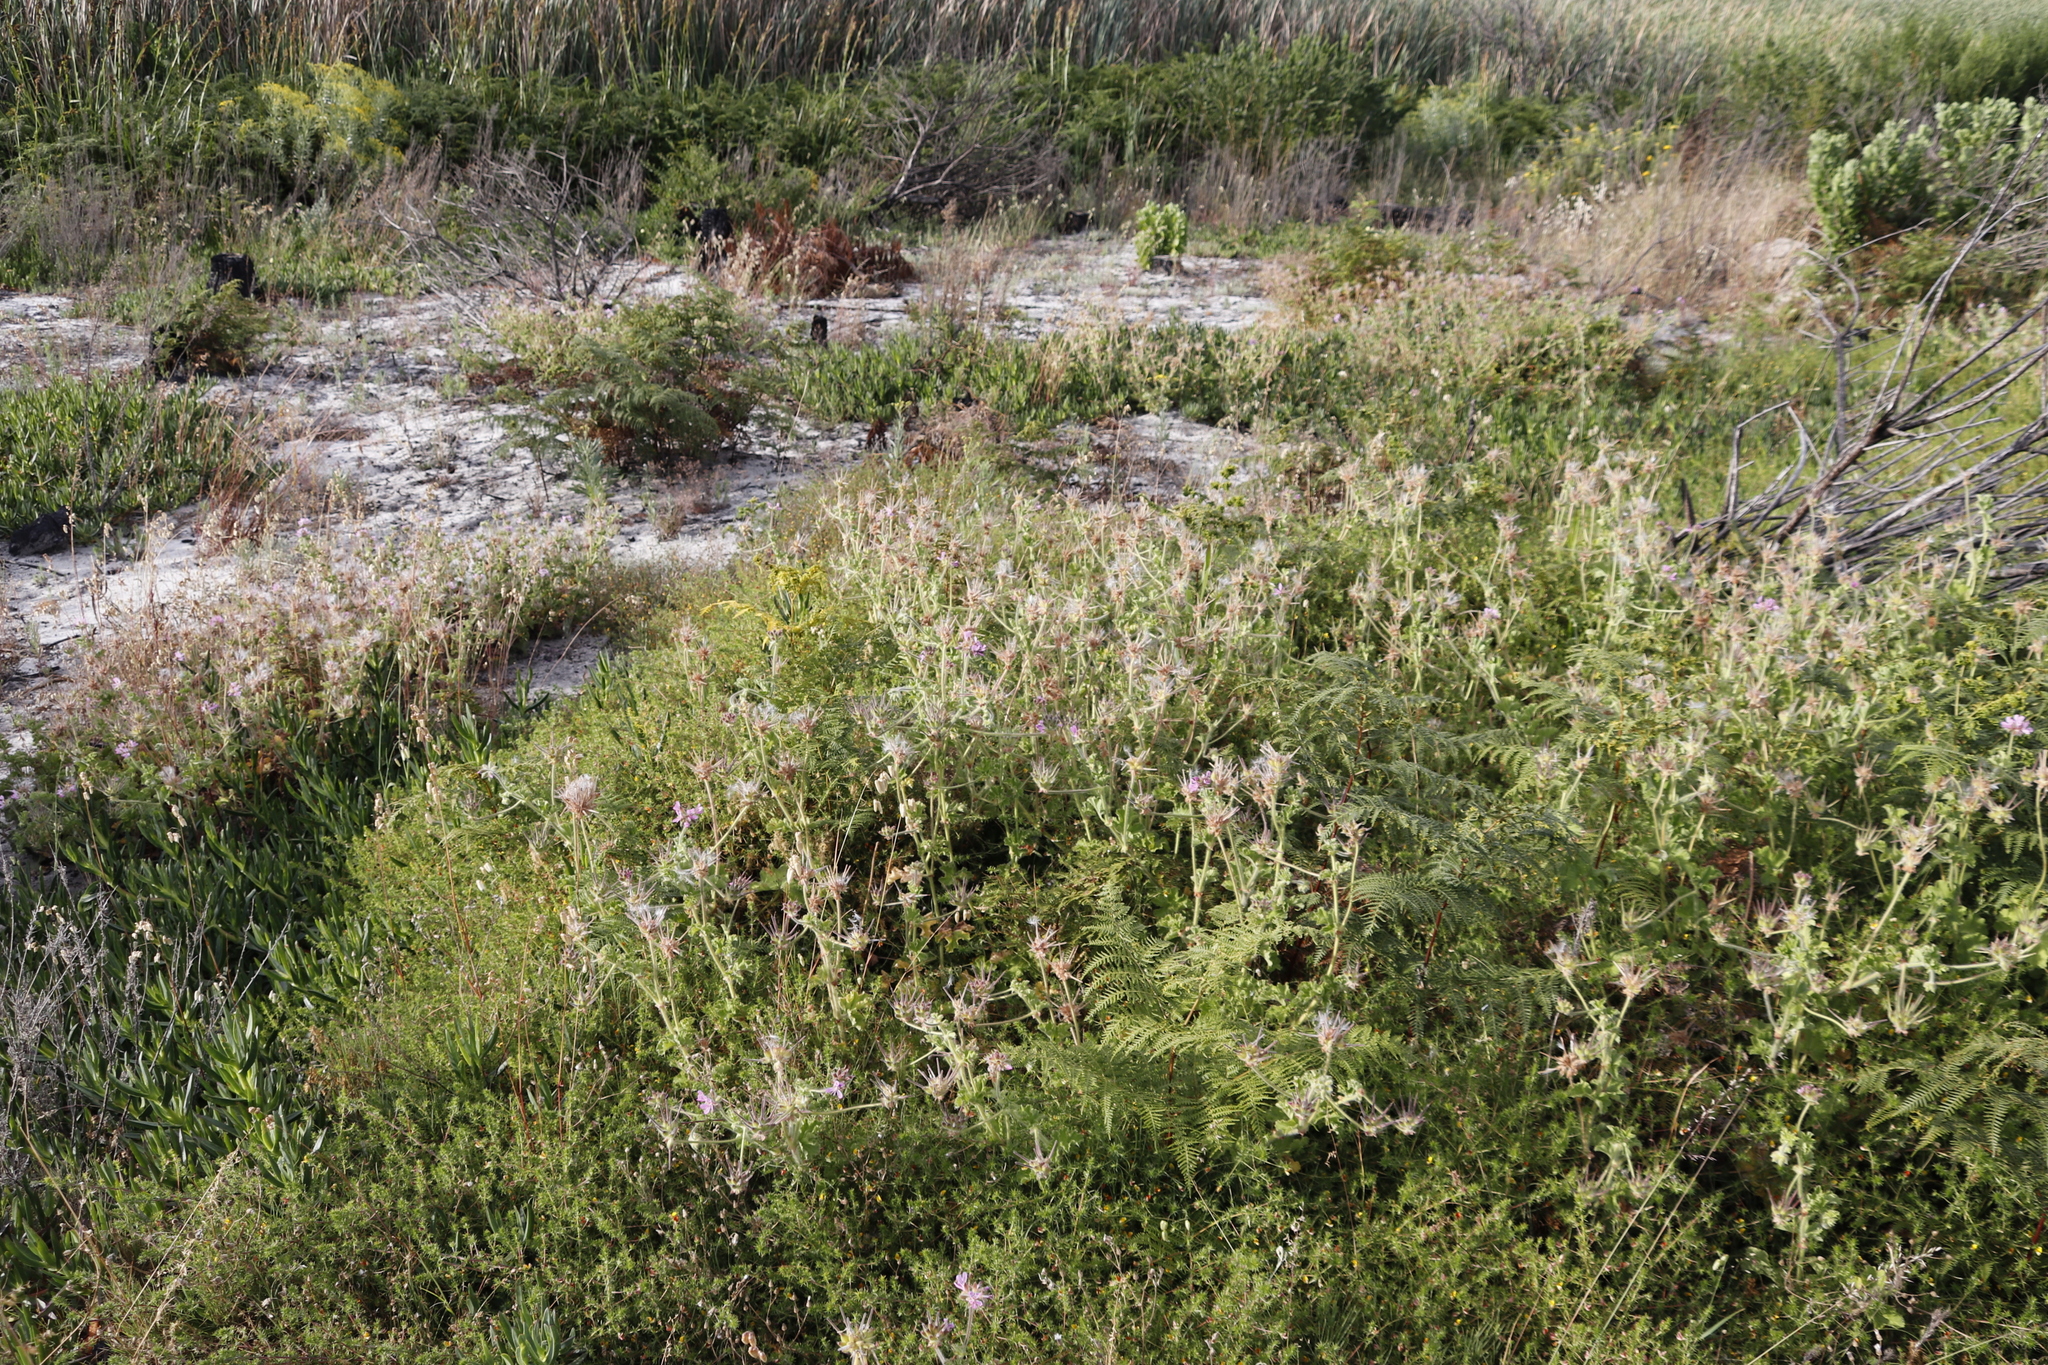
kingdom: Plantae
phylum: Tracheophyta
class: Magnoliopsida
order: Geraniales
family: Geraniaceae
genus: Pelargonium
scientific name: Pelargonium capitatum
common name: Rose scented geranium
